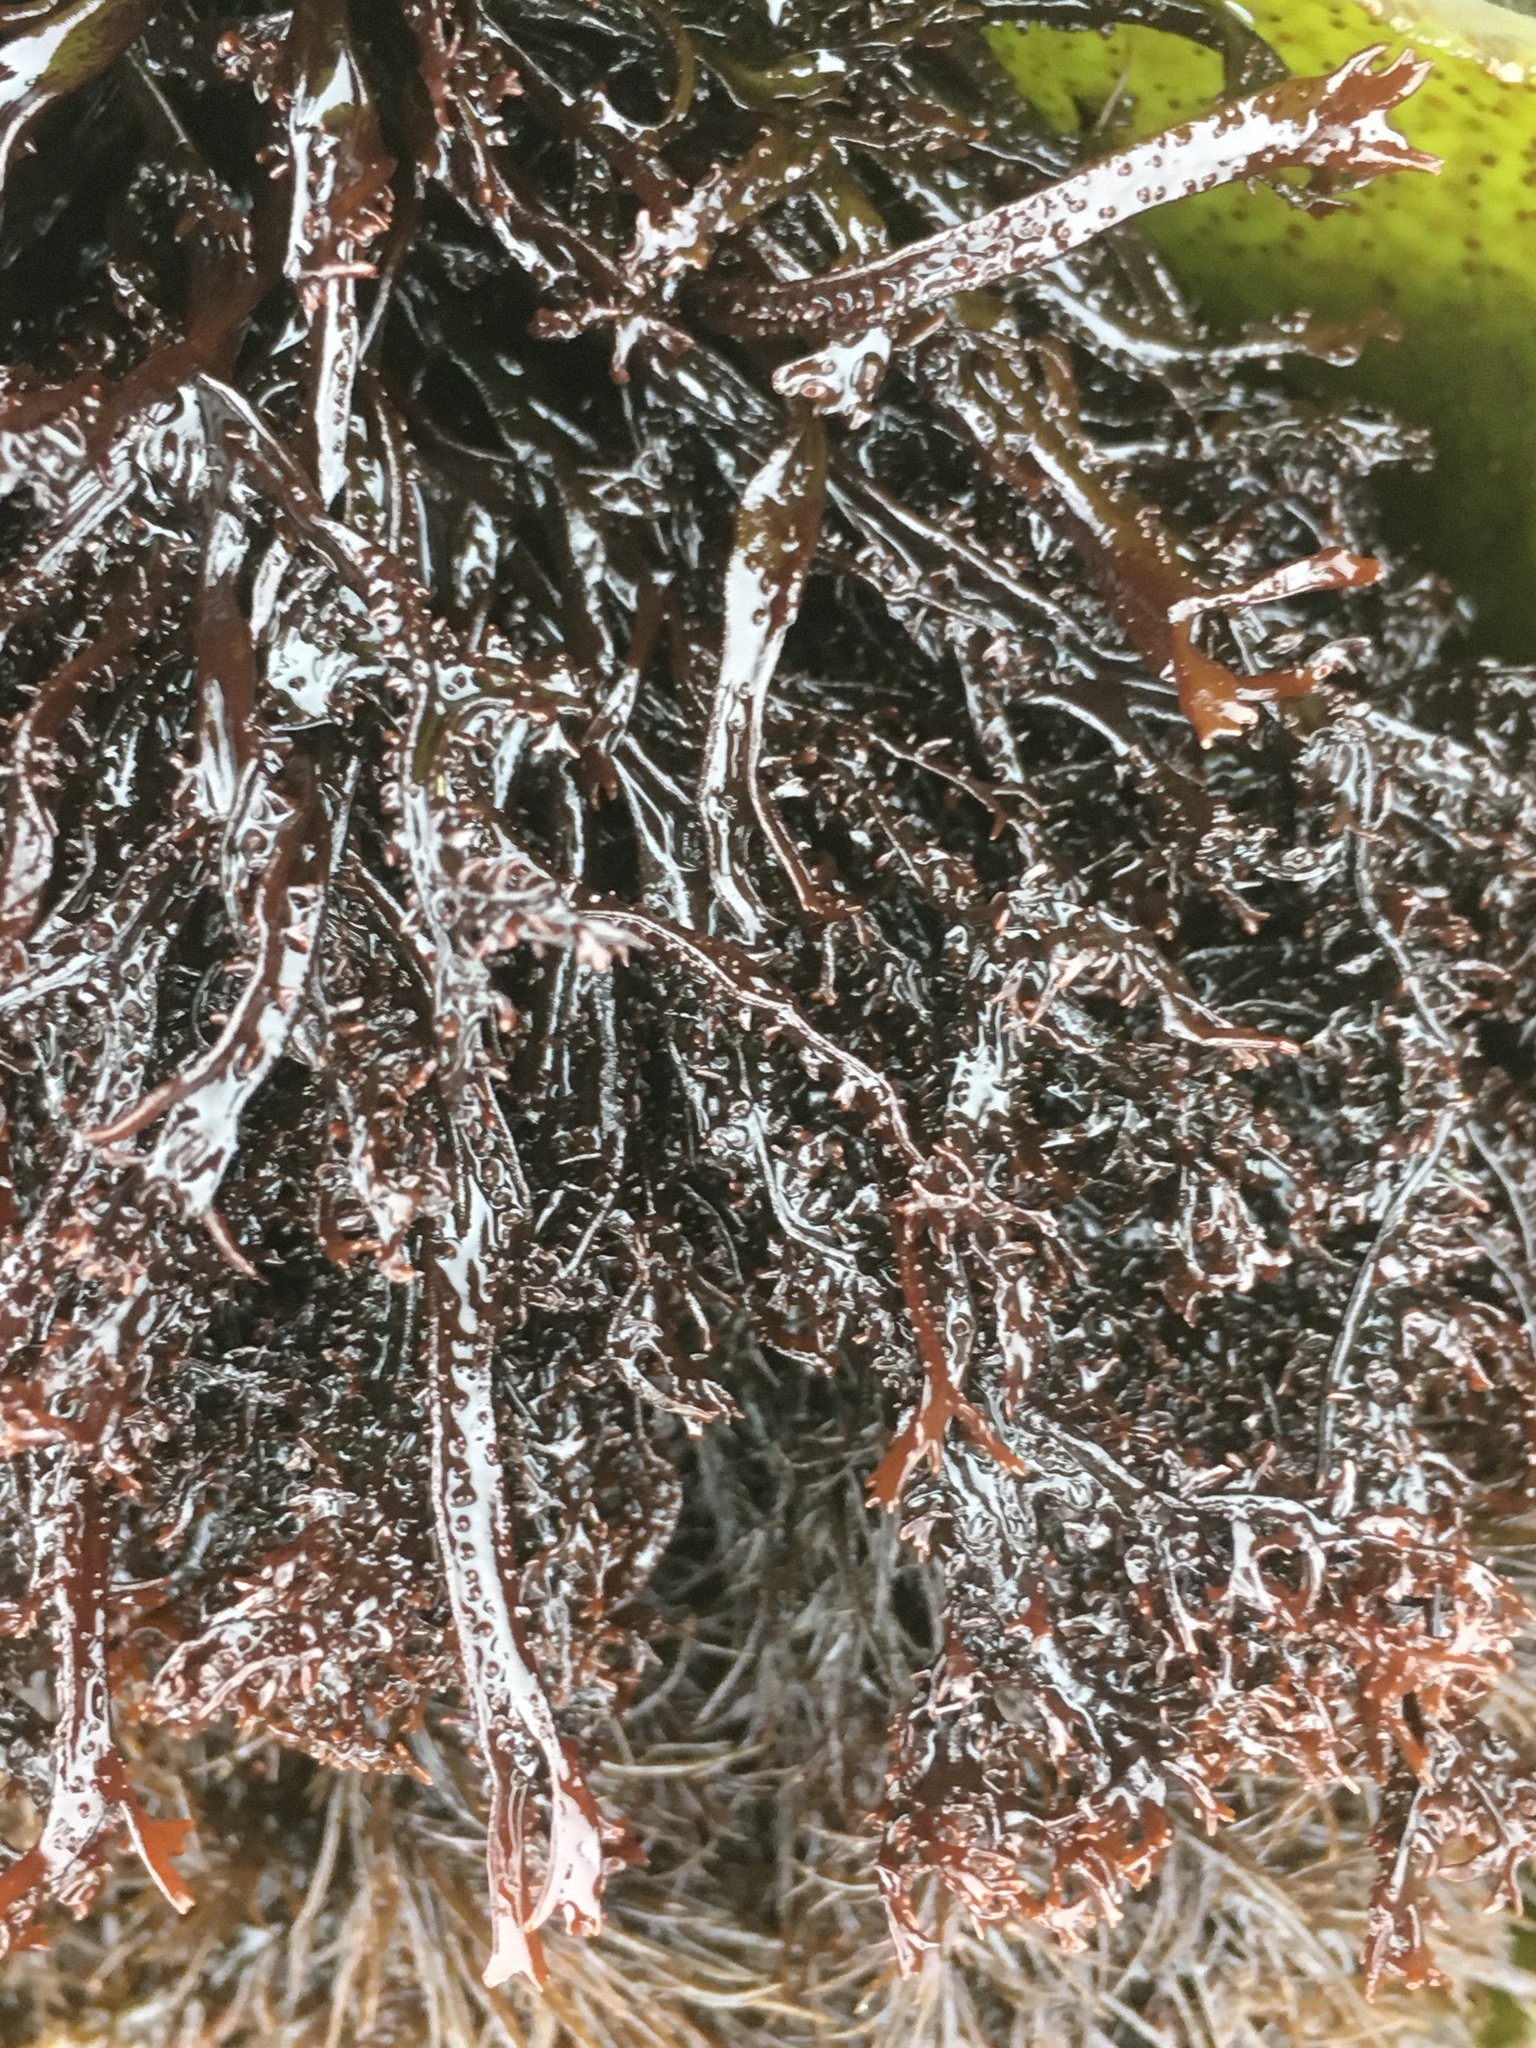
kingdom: Plantae
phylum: Rhodophyta
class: Florideophyceae
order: Gigartinales
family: Phyllophoraceae
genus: Mastocarpus
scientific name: Mastocarpus jardinii
